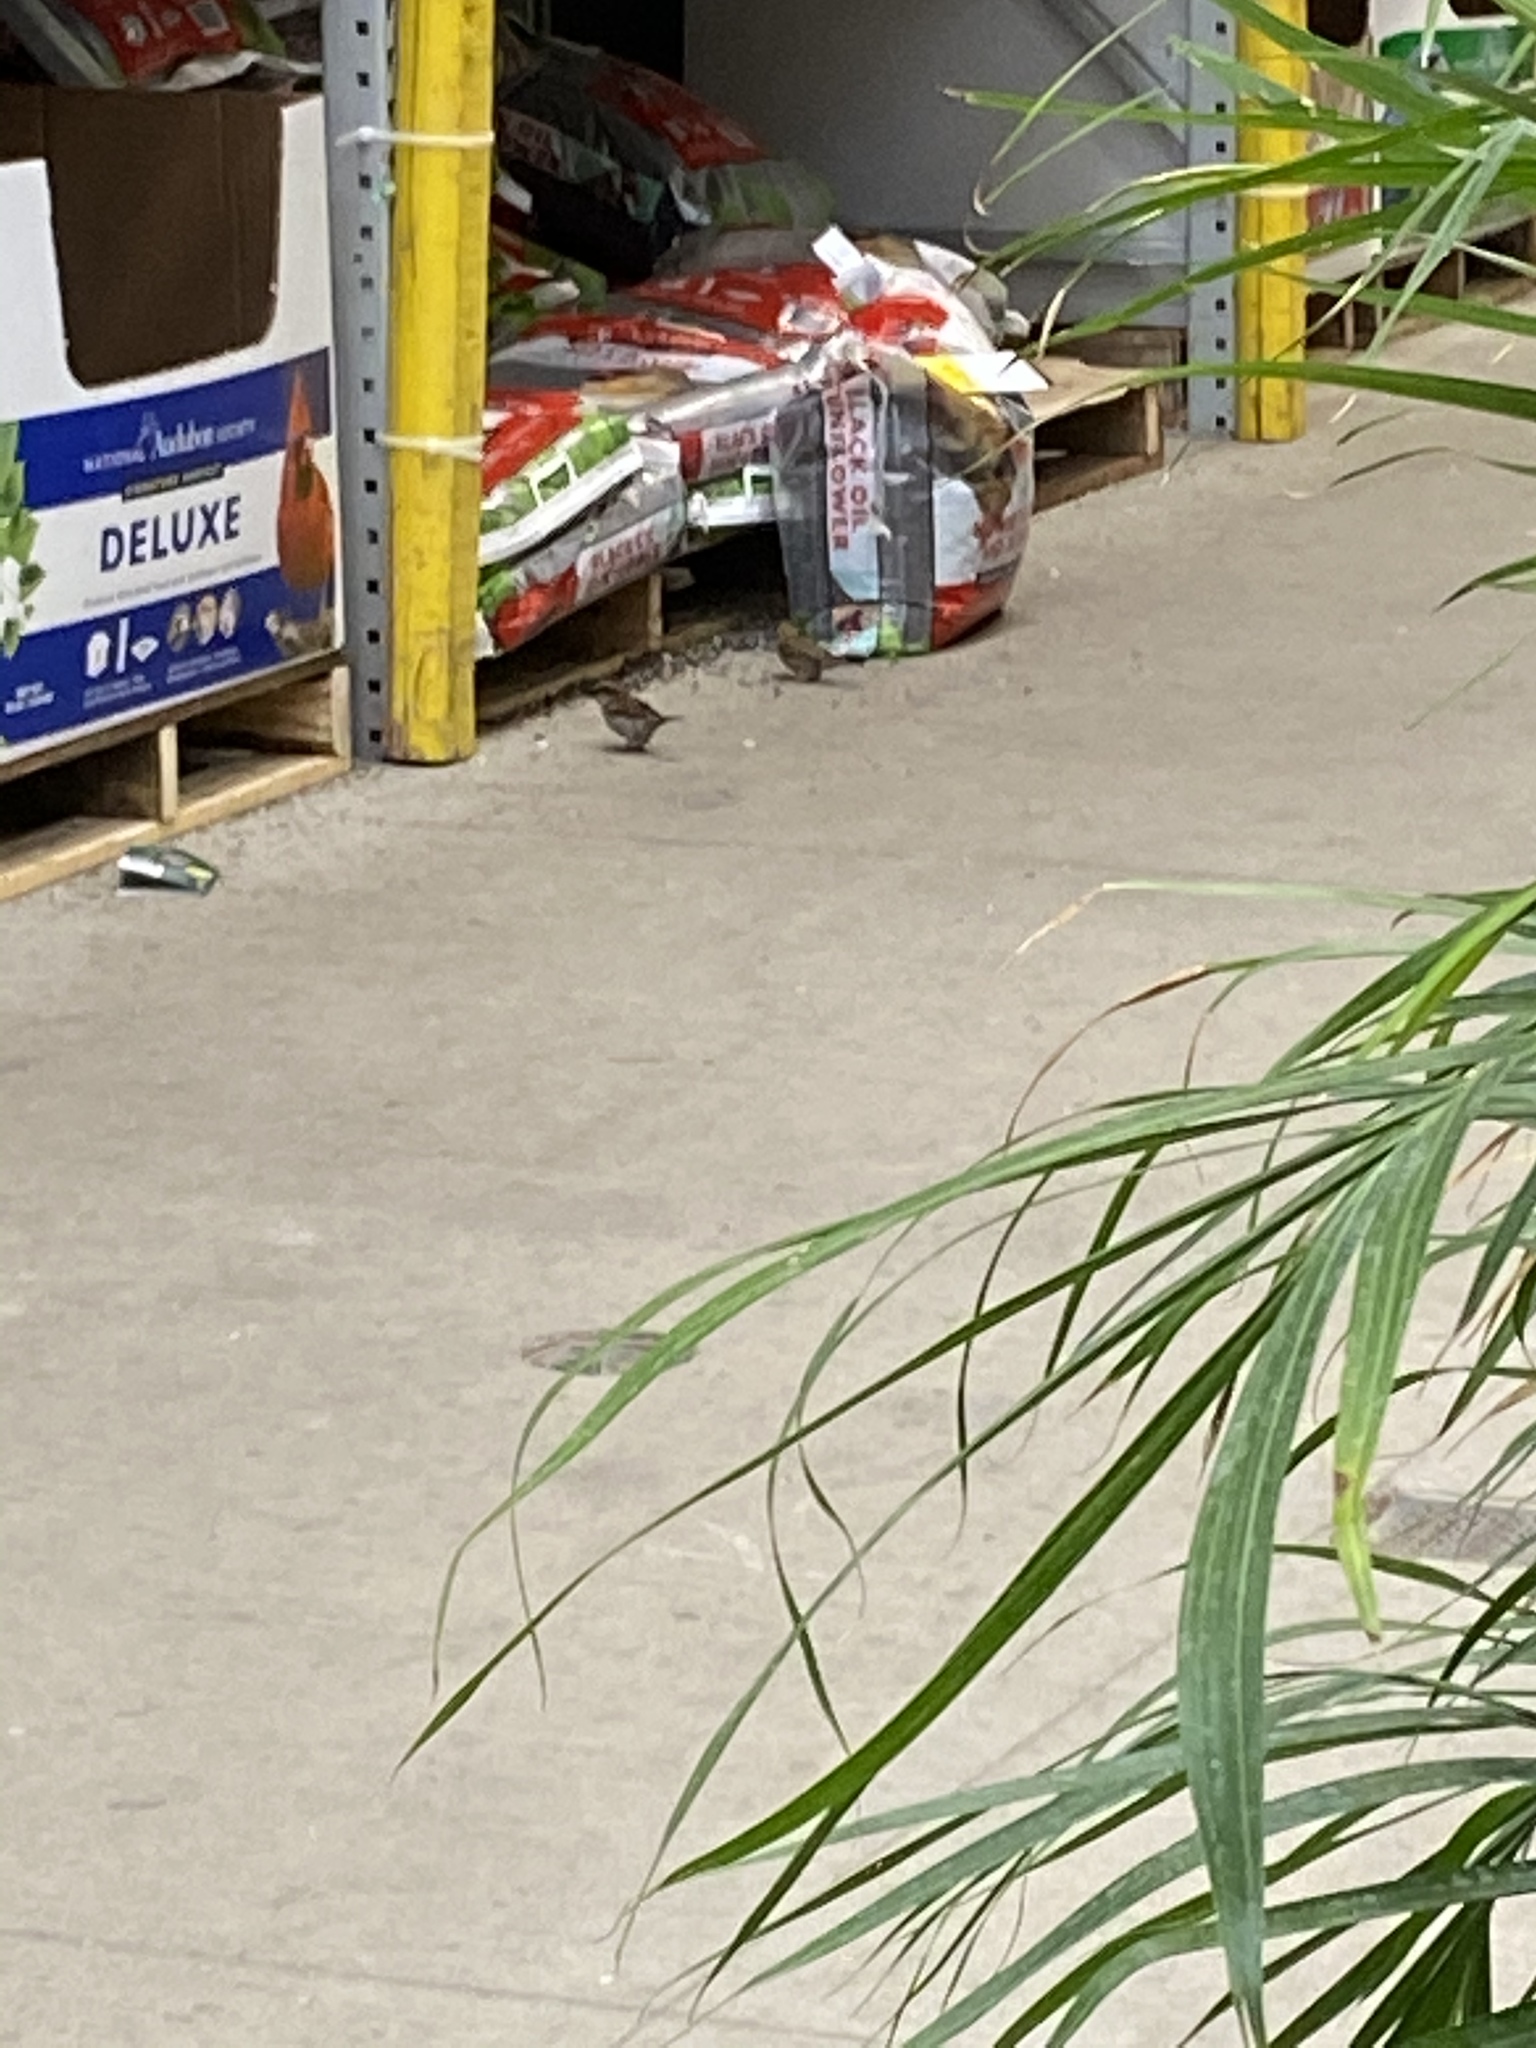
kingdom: Animalia
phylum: Chordata
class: Aves
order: Passeriformes
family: Passeridae
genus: Passer
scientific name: Passer domesticus
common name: House sparrow
